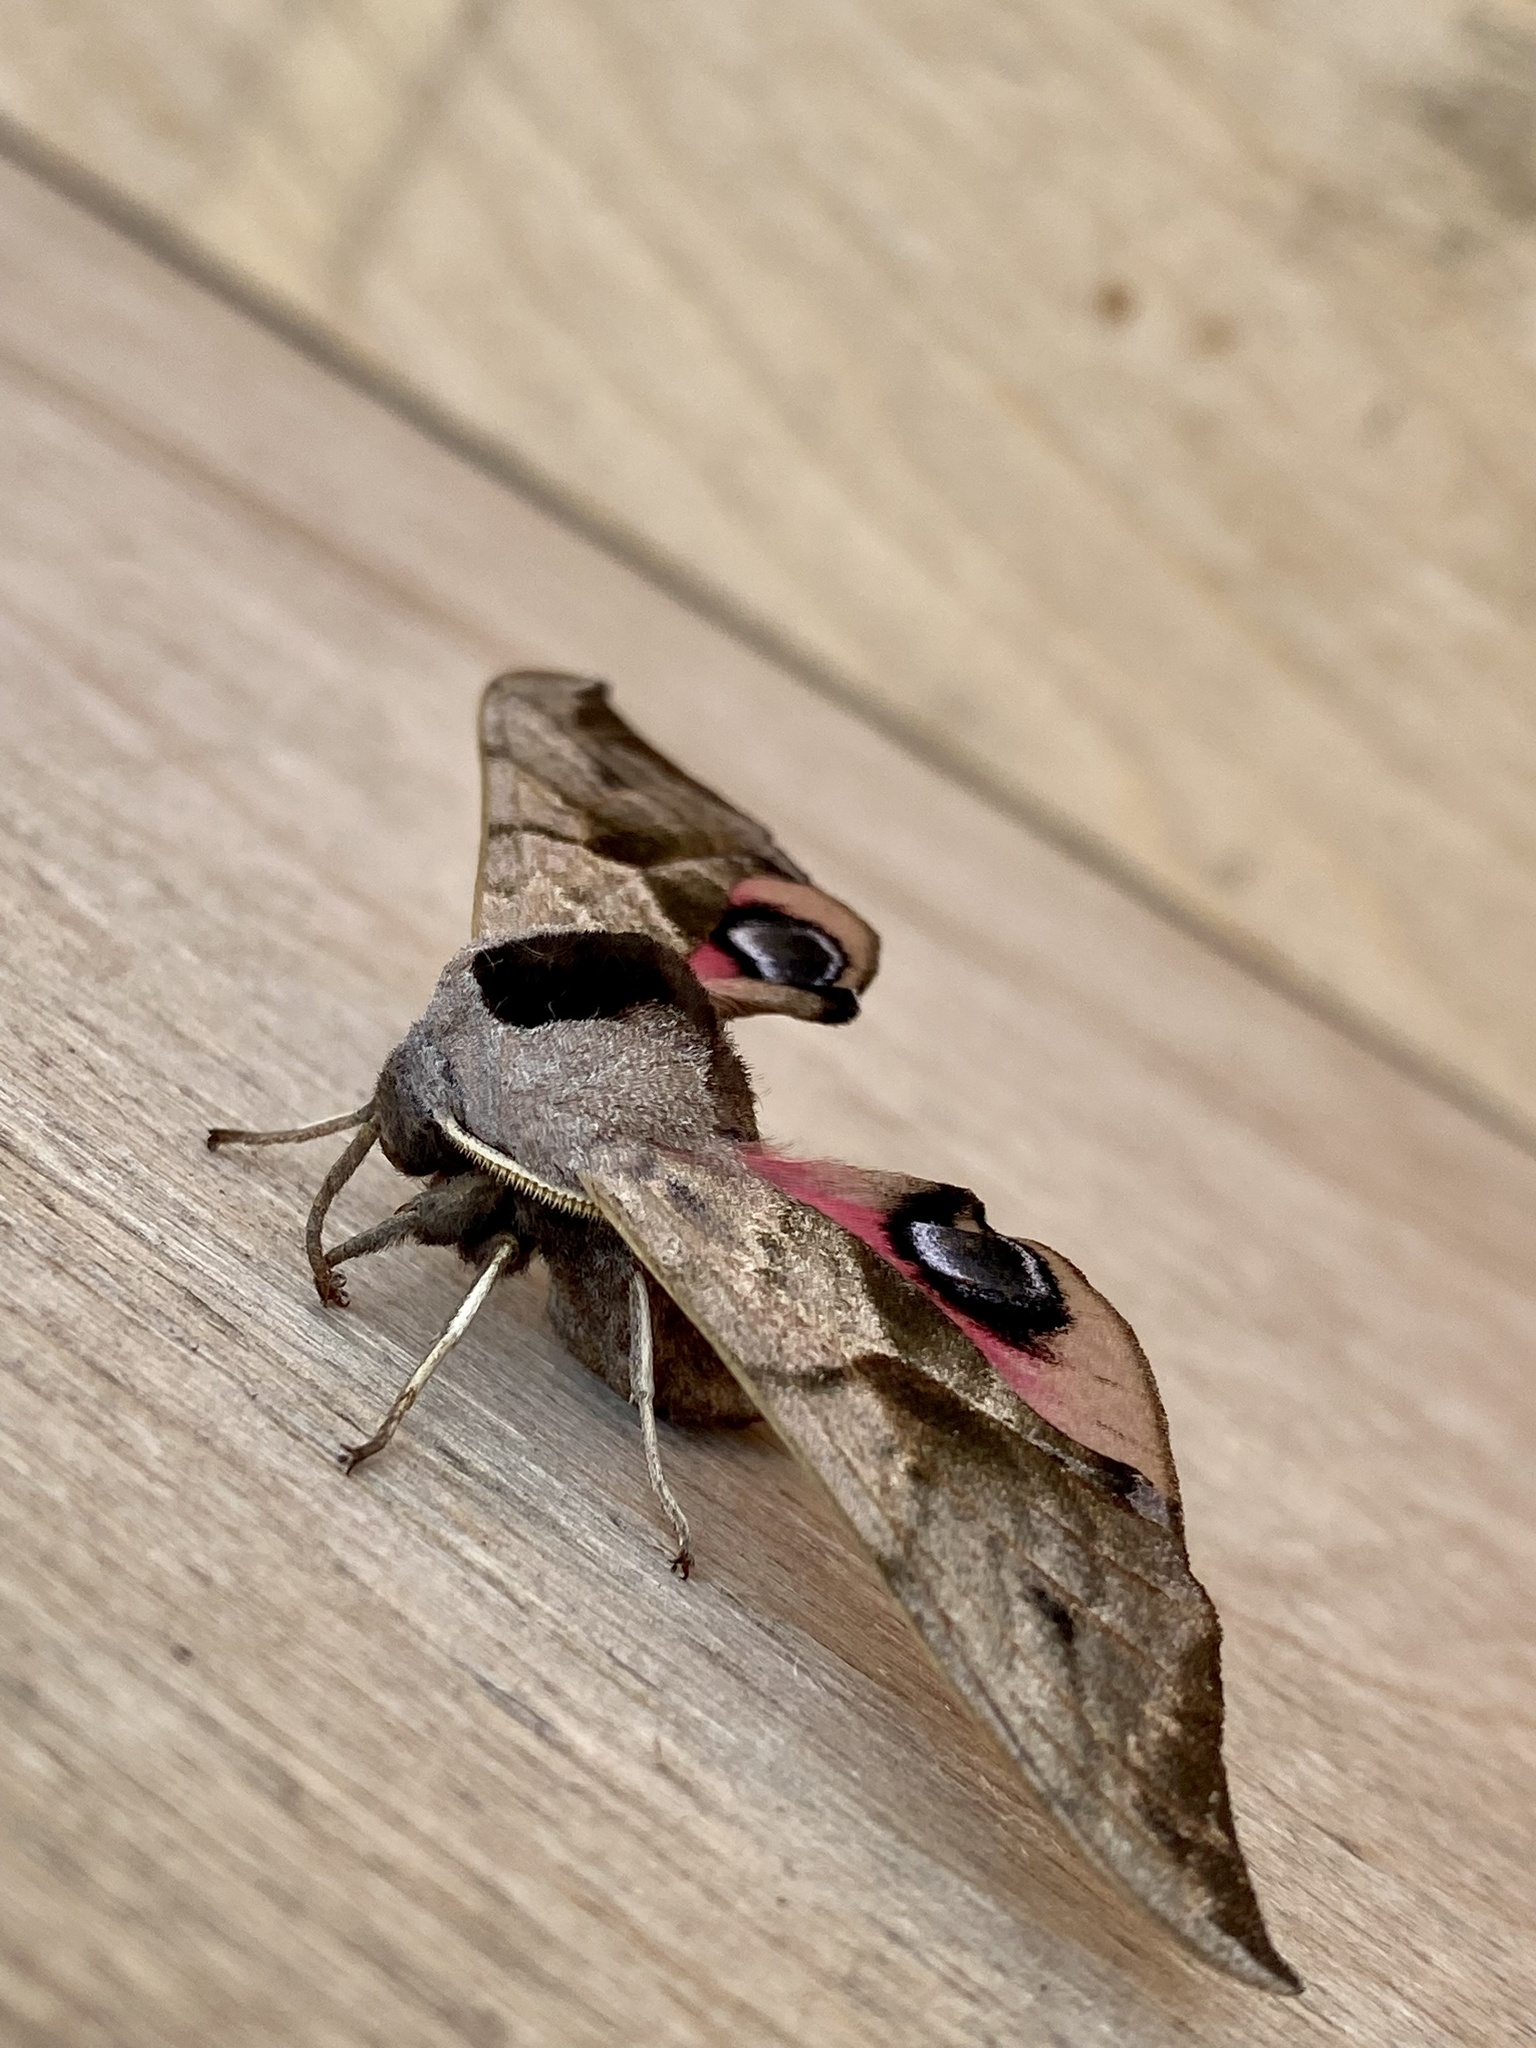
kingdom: Animalia
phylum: Arthropoda
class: Insecta
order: Lepidoptera
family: Sphingidae
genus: Smerinthus
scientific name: Smerinthus ocellata
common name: Eyed hawk-moth
